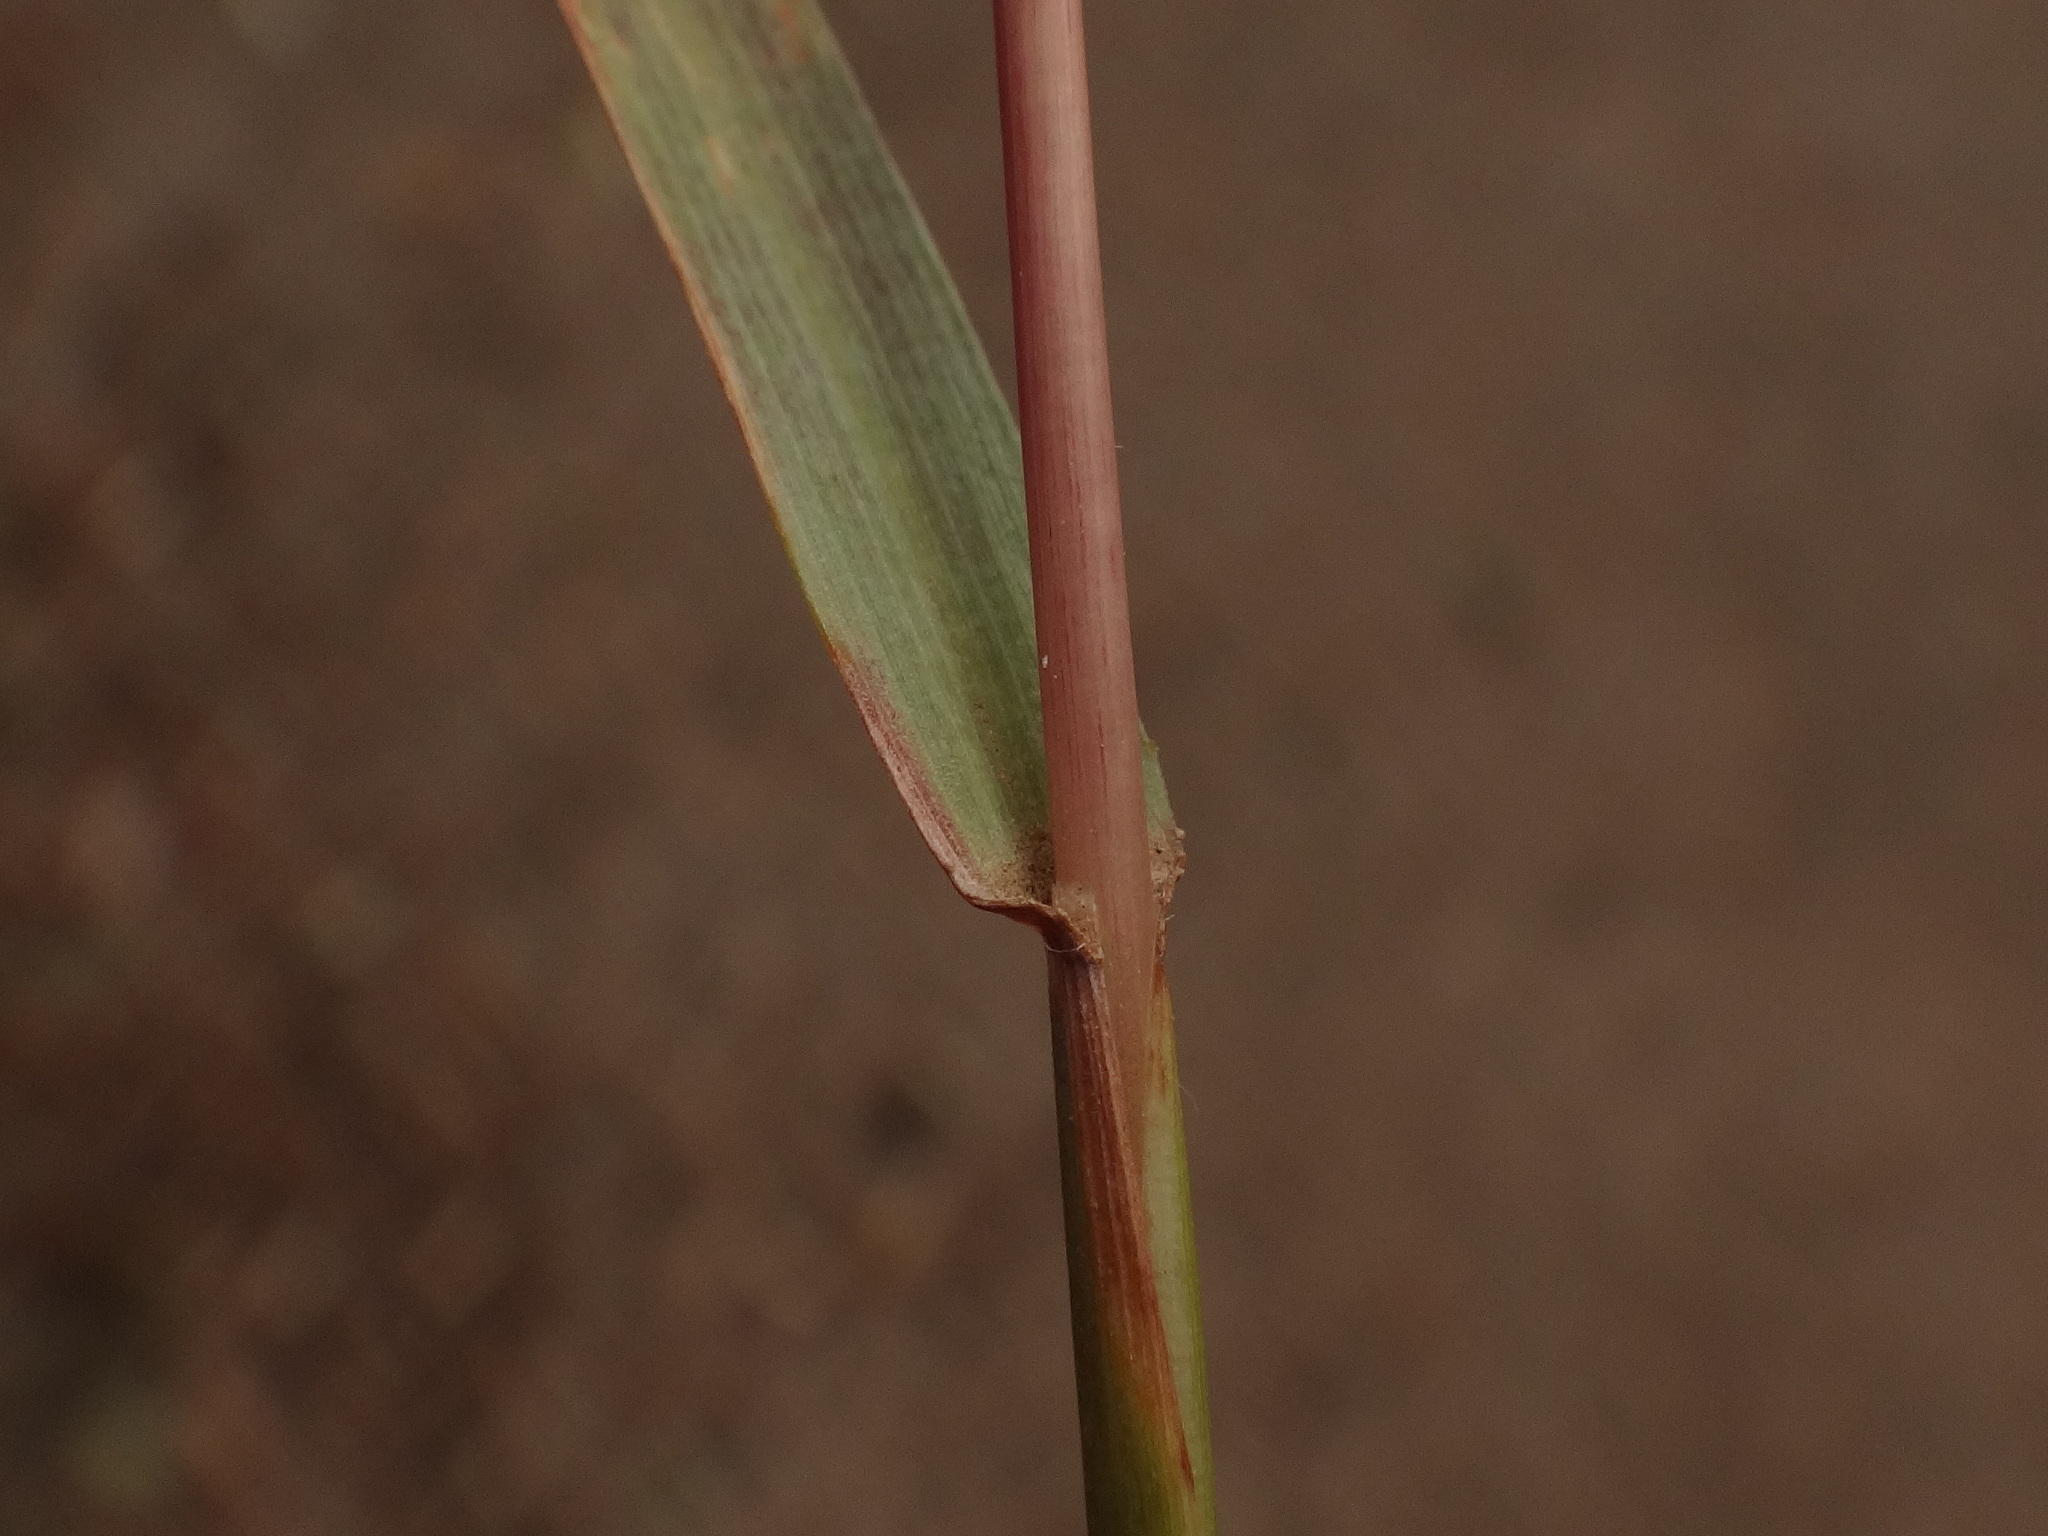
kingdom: Plantae
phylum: Tracheophyta
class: Liliopsida
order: Poales
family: Poaceae
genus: Hyparrhenia
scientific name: Hyparrhenia hirta
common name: Thatching grass
